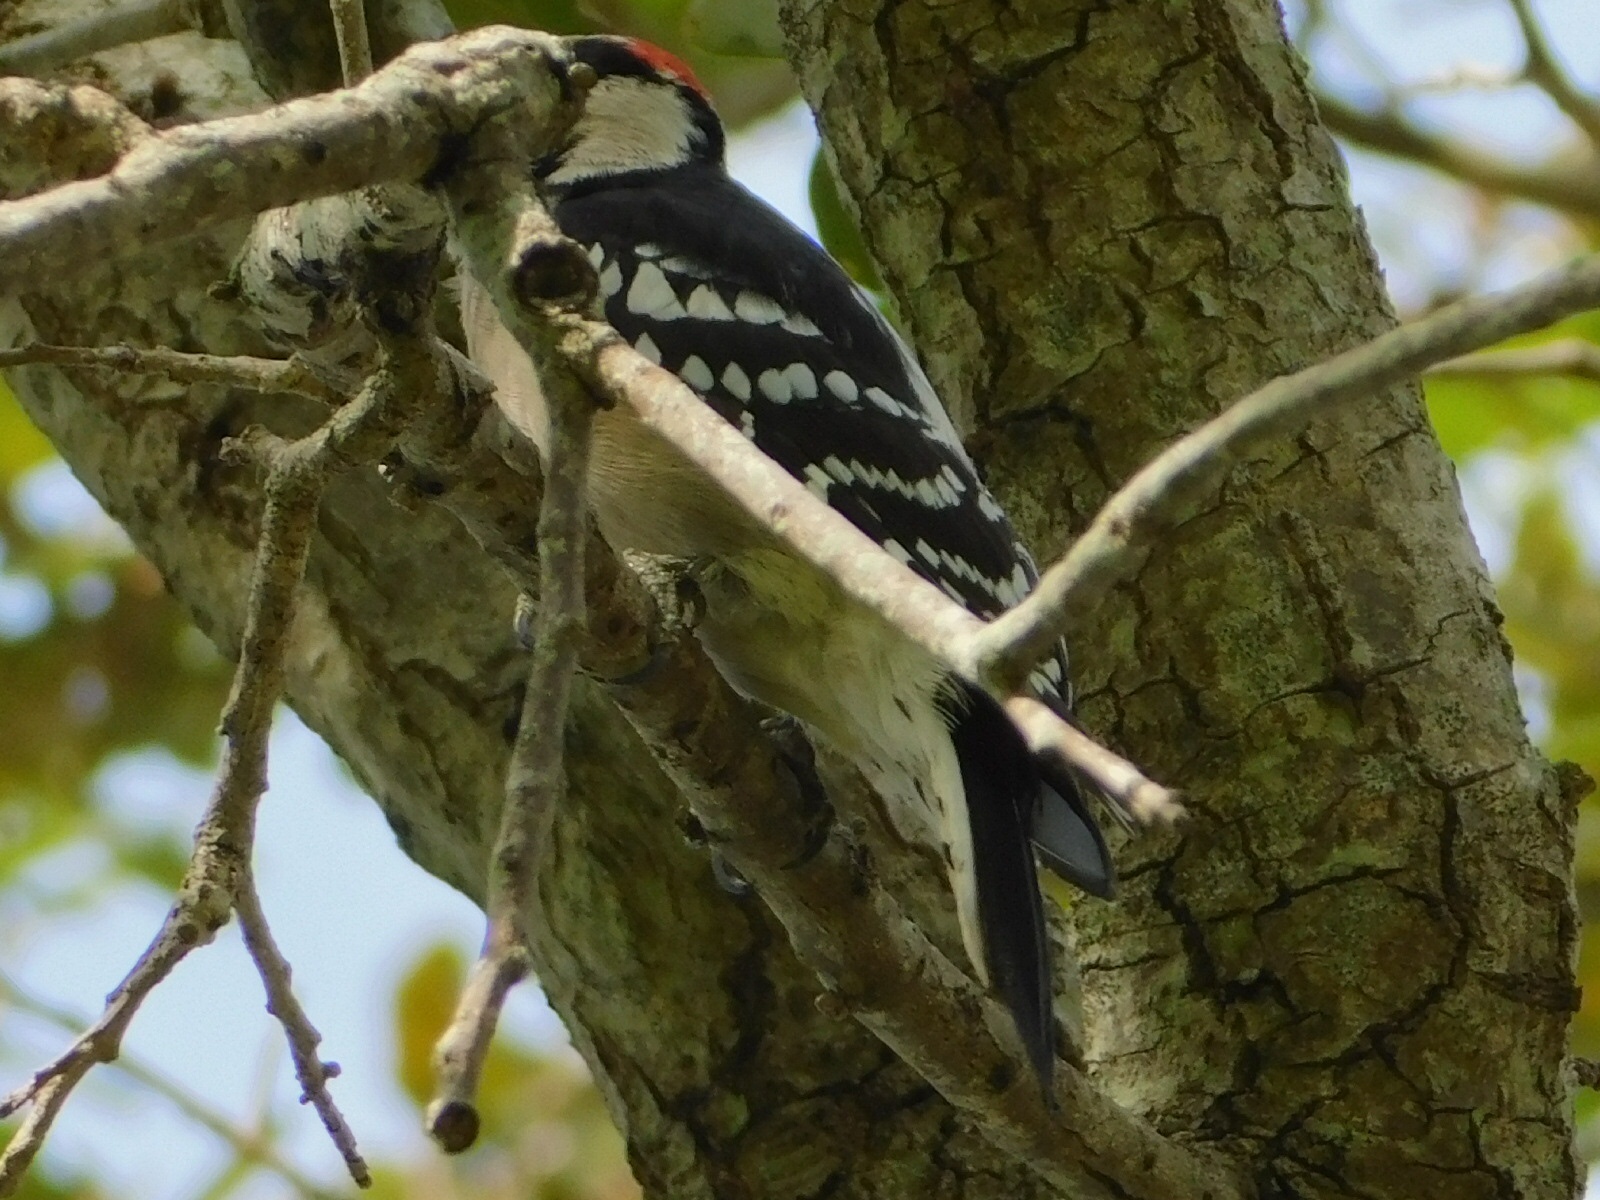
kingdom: Animalia
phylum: Chordata
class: Aves
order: Piciformes
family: Picidae
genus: Dryobates
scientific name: Dryobates pubescens
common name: Downy woodpecker
